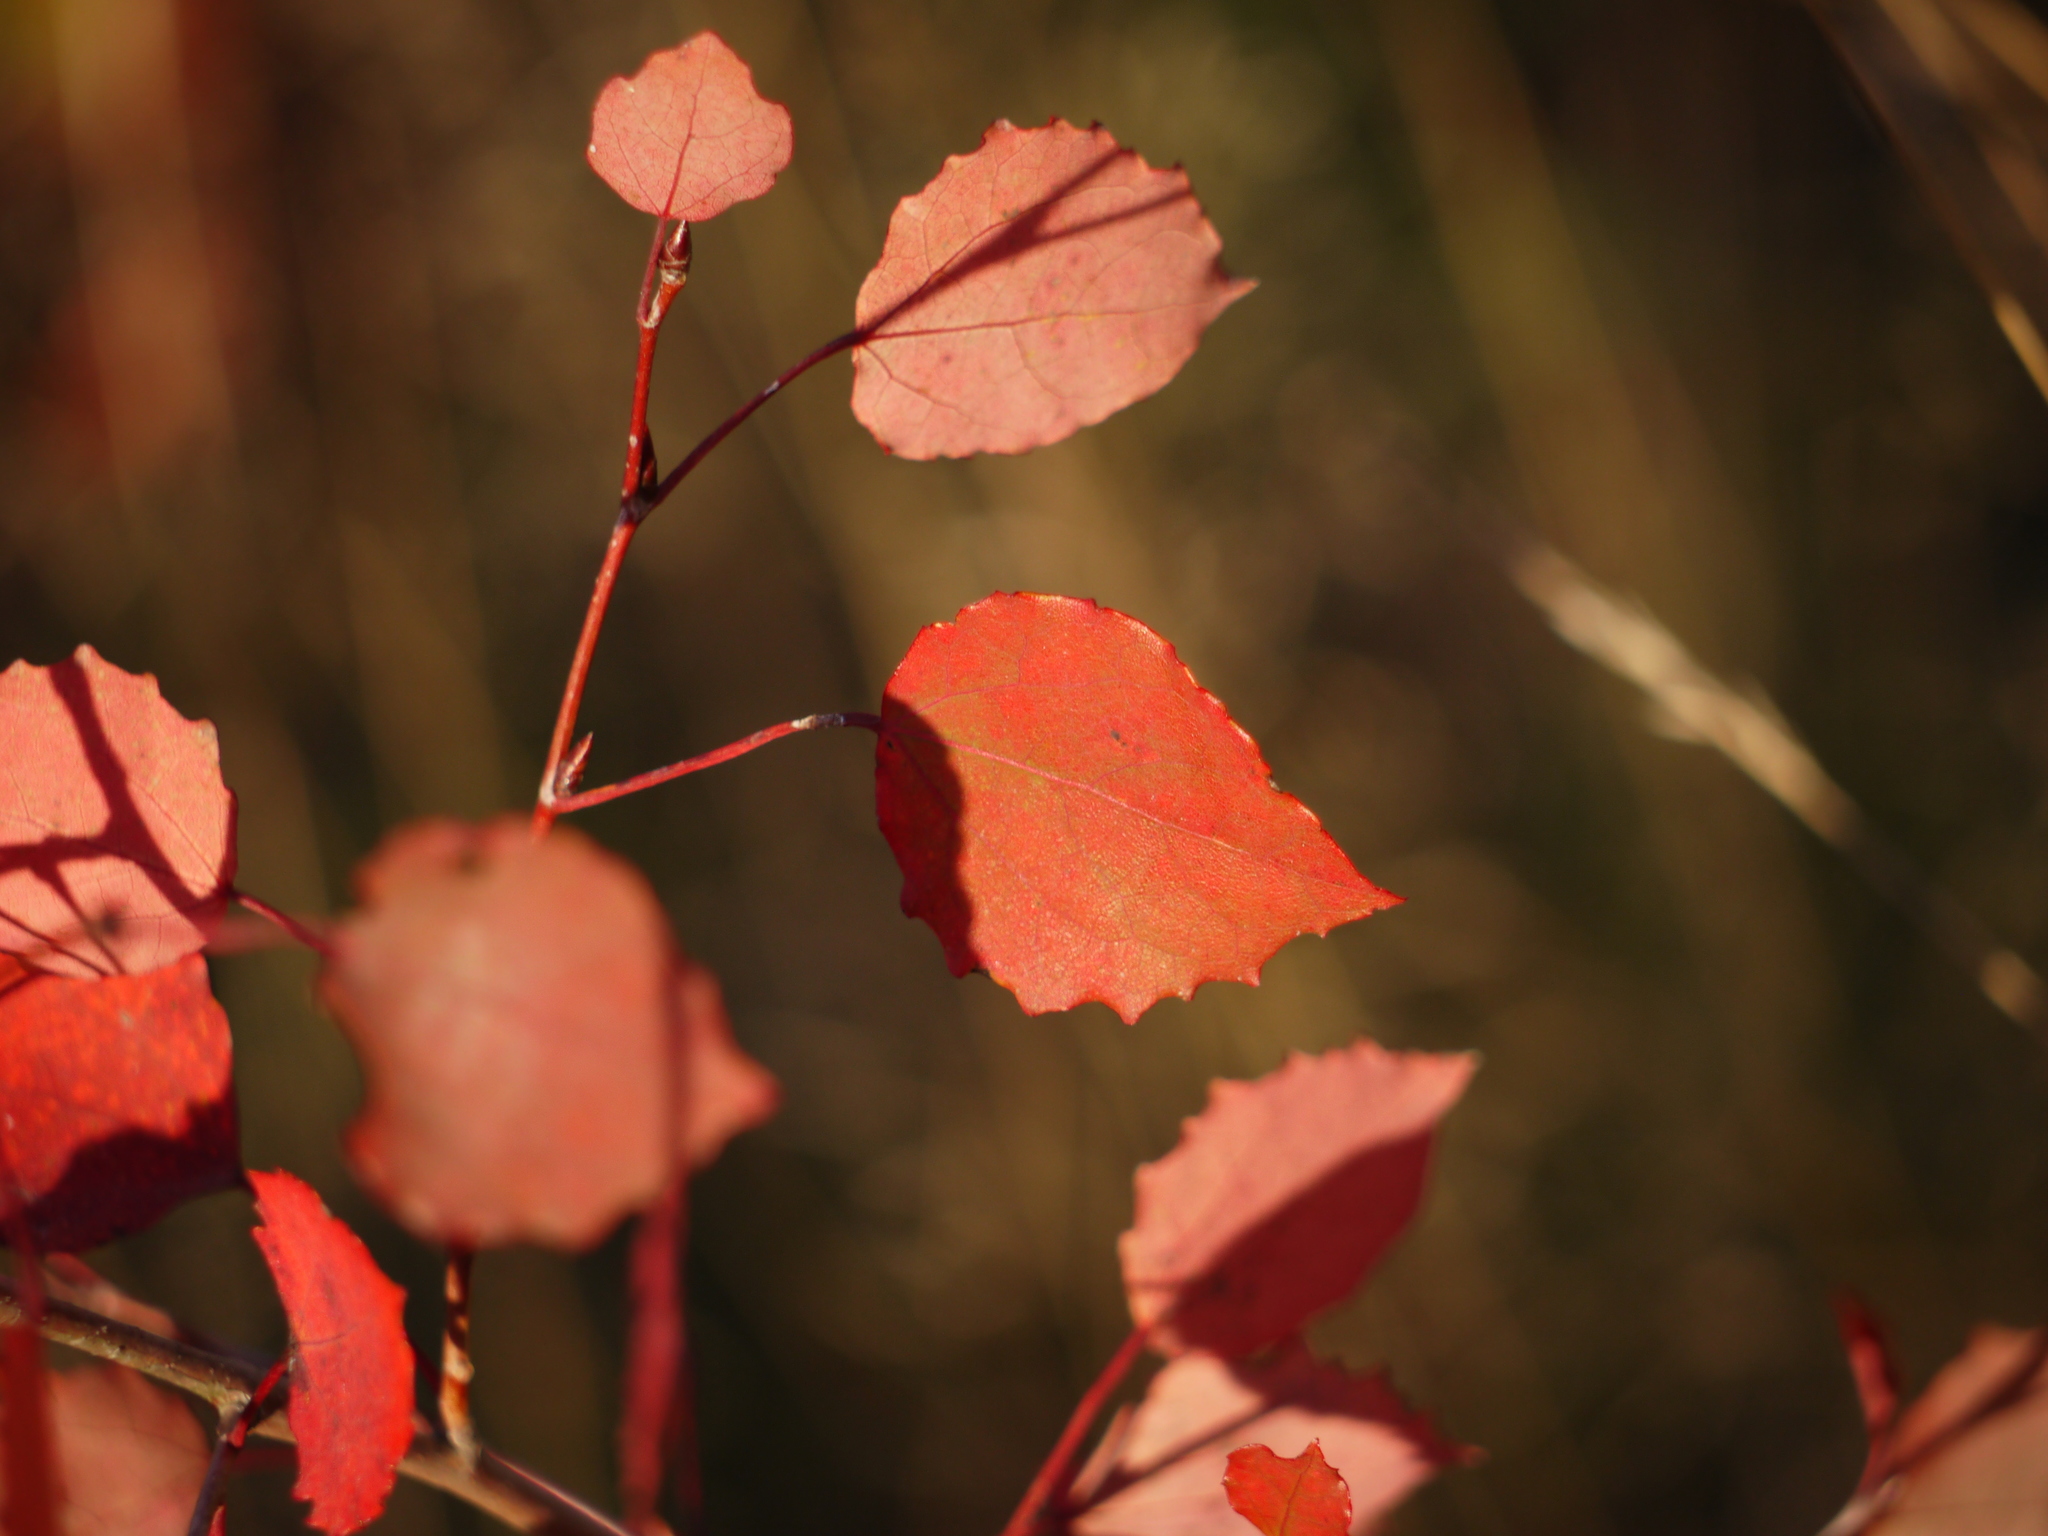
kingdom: Plantae
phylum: Tracheophyta
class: Magnoliopsida
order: Malpighiales
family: Salicaceae
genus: Populus
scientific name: Populus tremula
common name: European aspen
